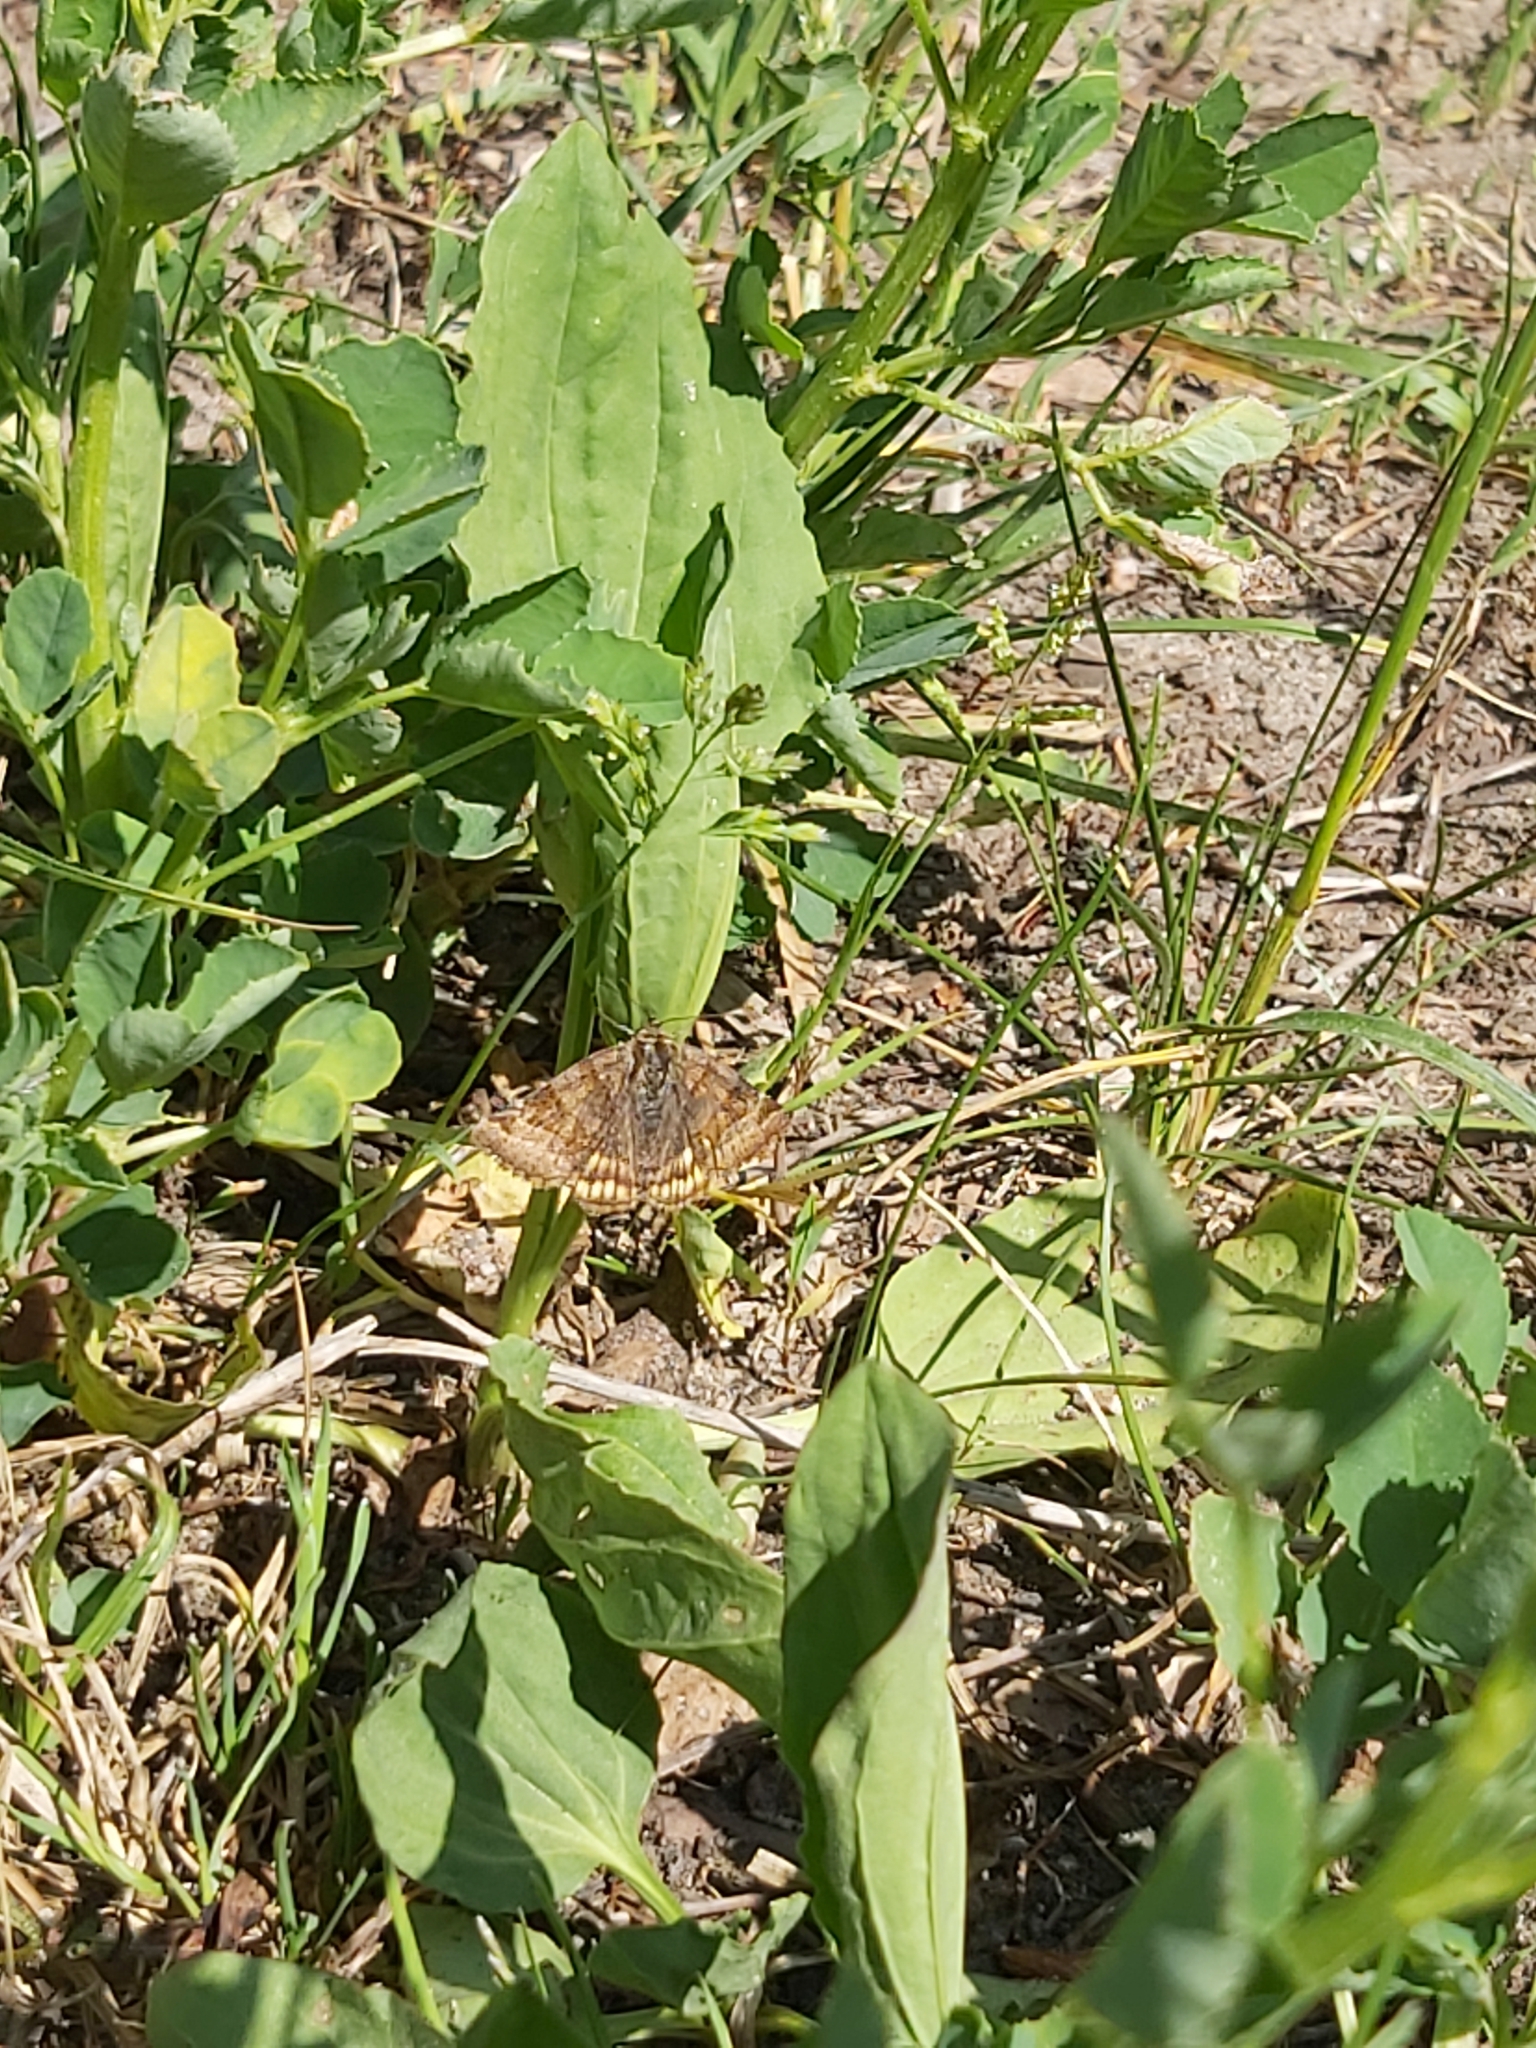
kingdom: Animalia
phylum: Arthropoda
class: Insecta
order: Lepidoptera
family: Erebidae
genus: Euclidia
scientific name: Euclidia glyphica
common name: Burnet companion
